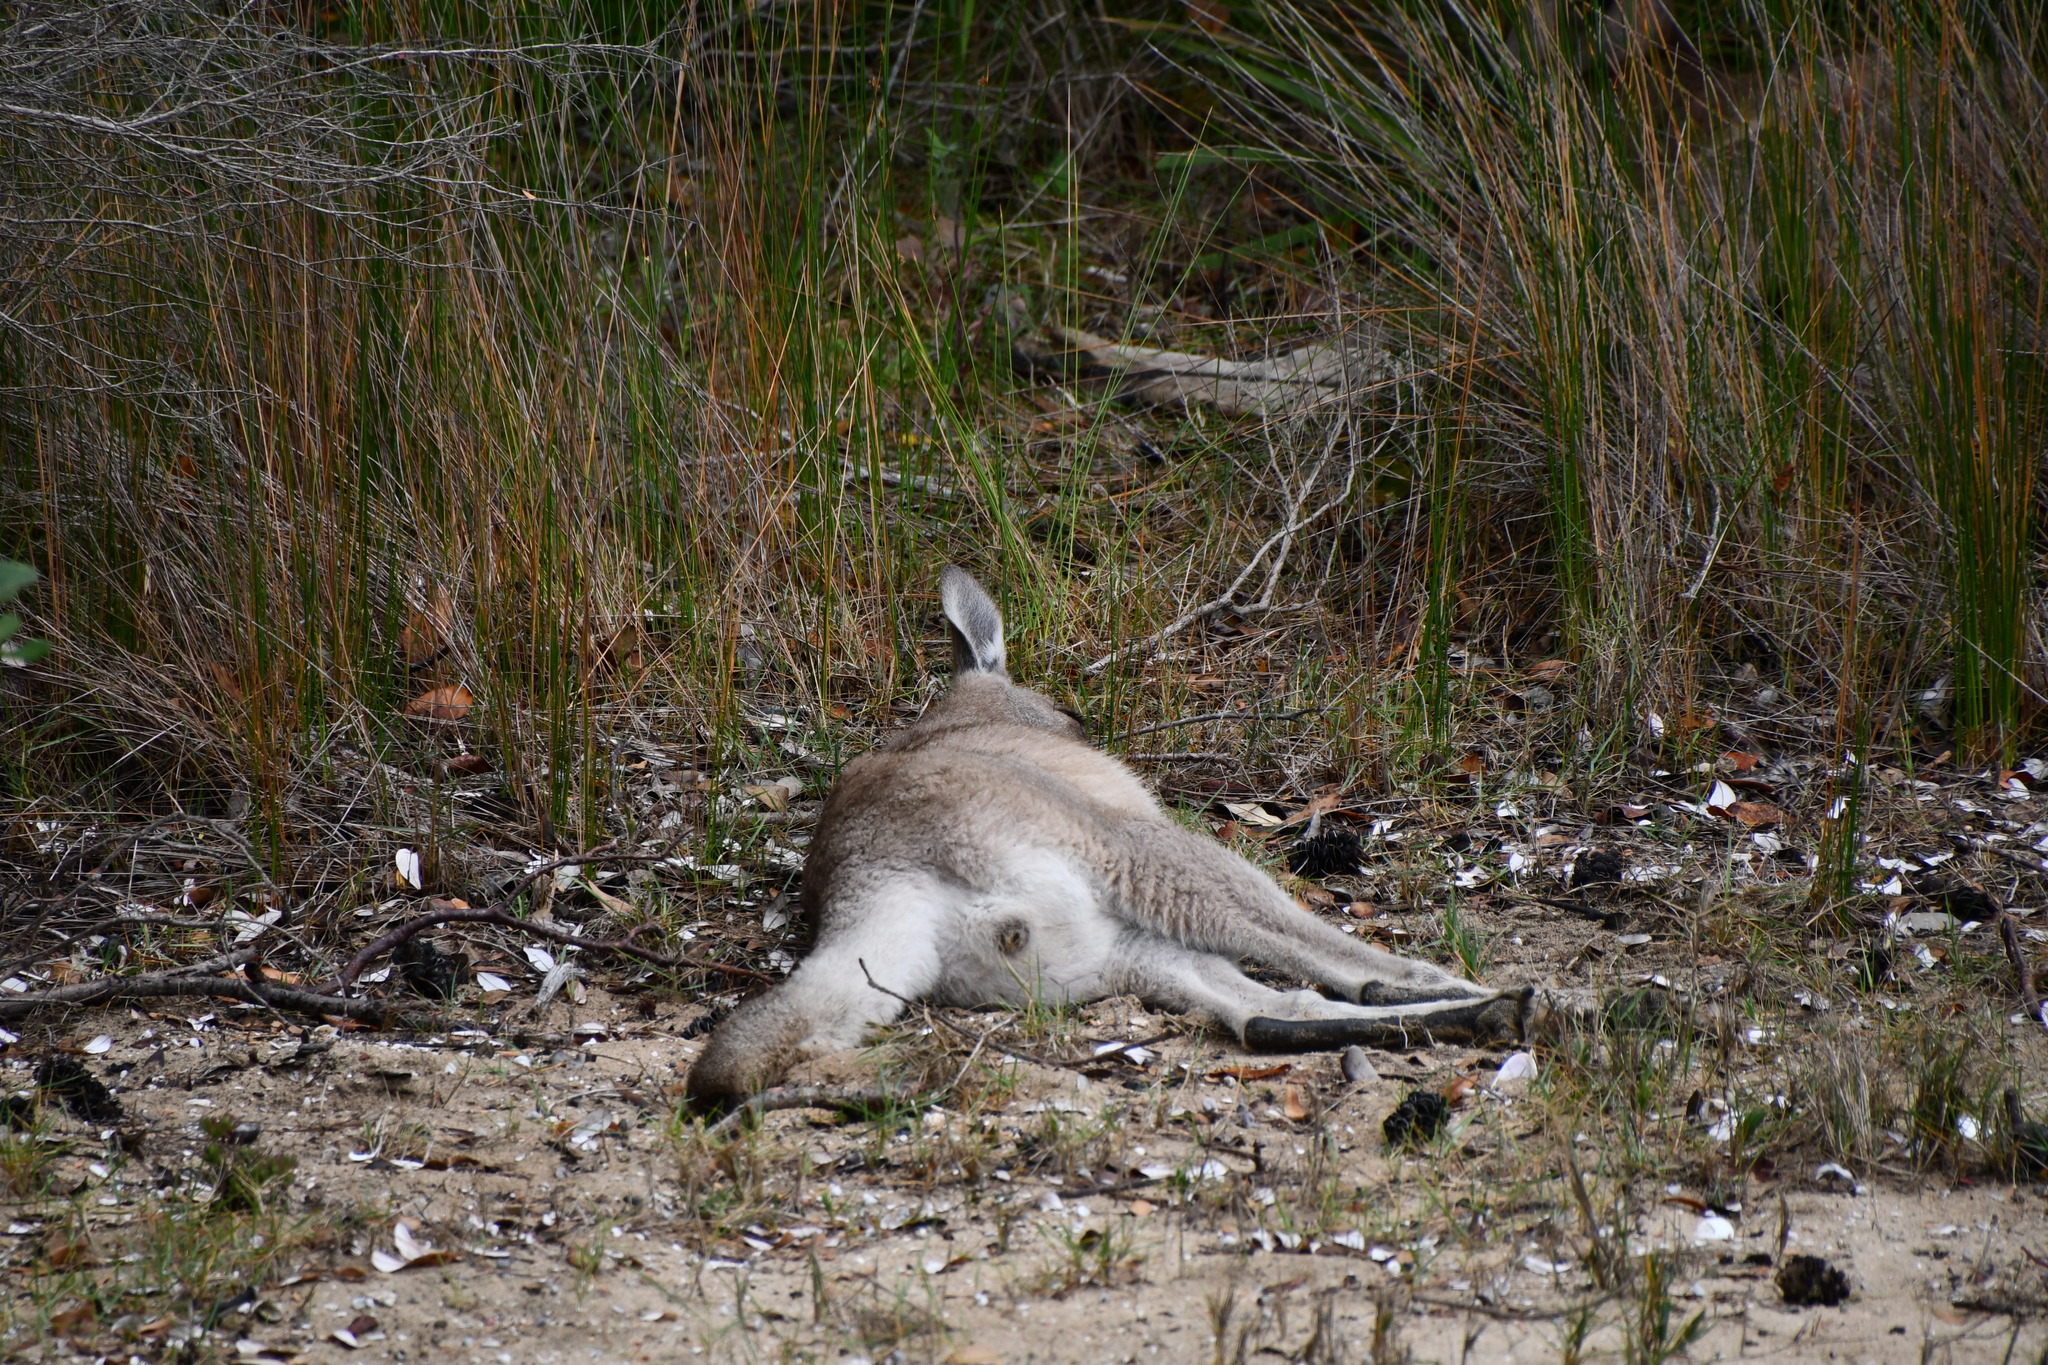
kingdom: Animalia
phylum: Chordata
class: Mammalia
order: Diprotodontia
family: Macropodidae
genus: Macropus
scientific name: Macropus giganteus
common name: Eastern grey kangaroo
